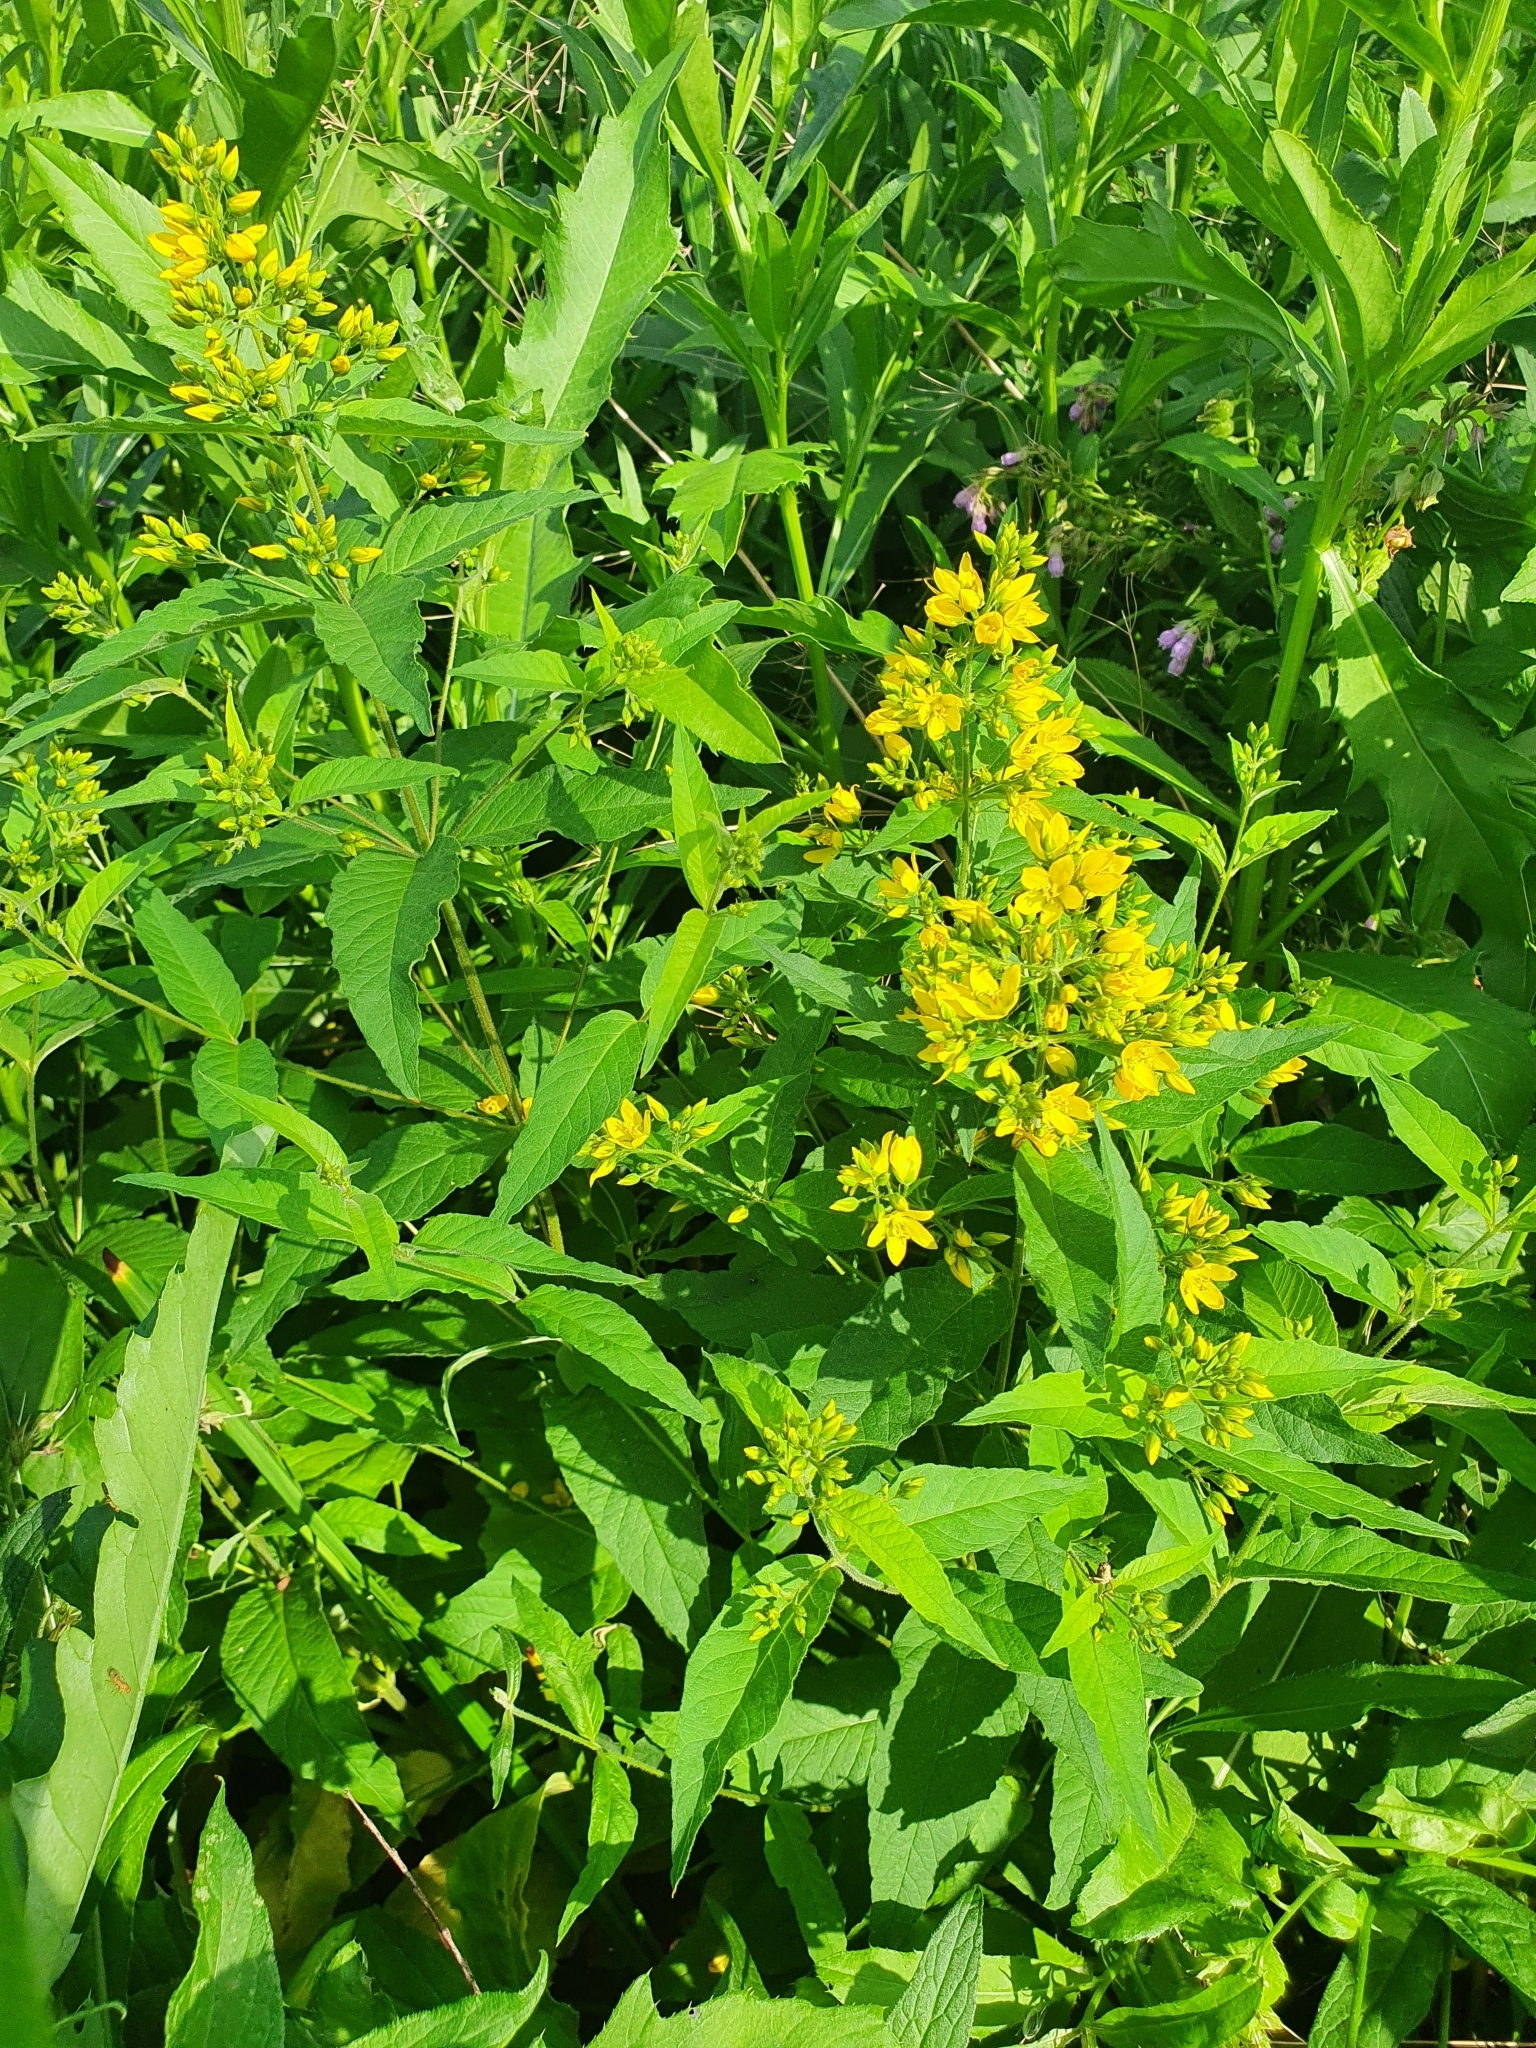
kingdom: Plantae
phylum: Tracheophyta
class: Magnoliopsida
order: Ericales
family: Primulaceae
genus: Lysimachia
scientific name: Lysimachia vulgaris
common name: Yellow loosestrife
